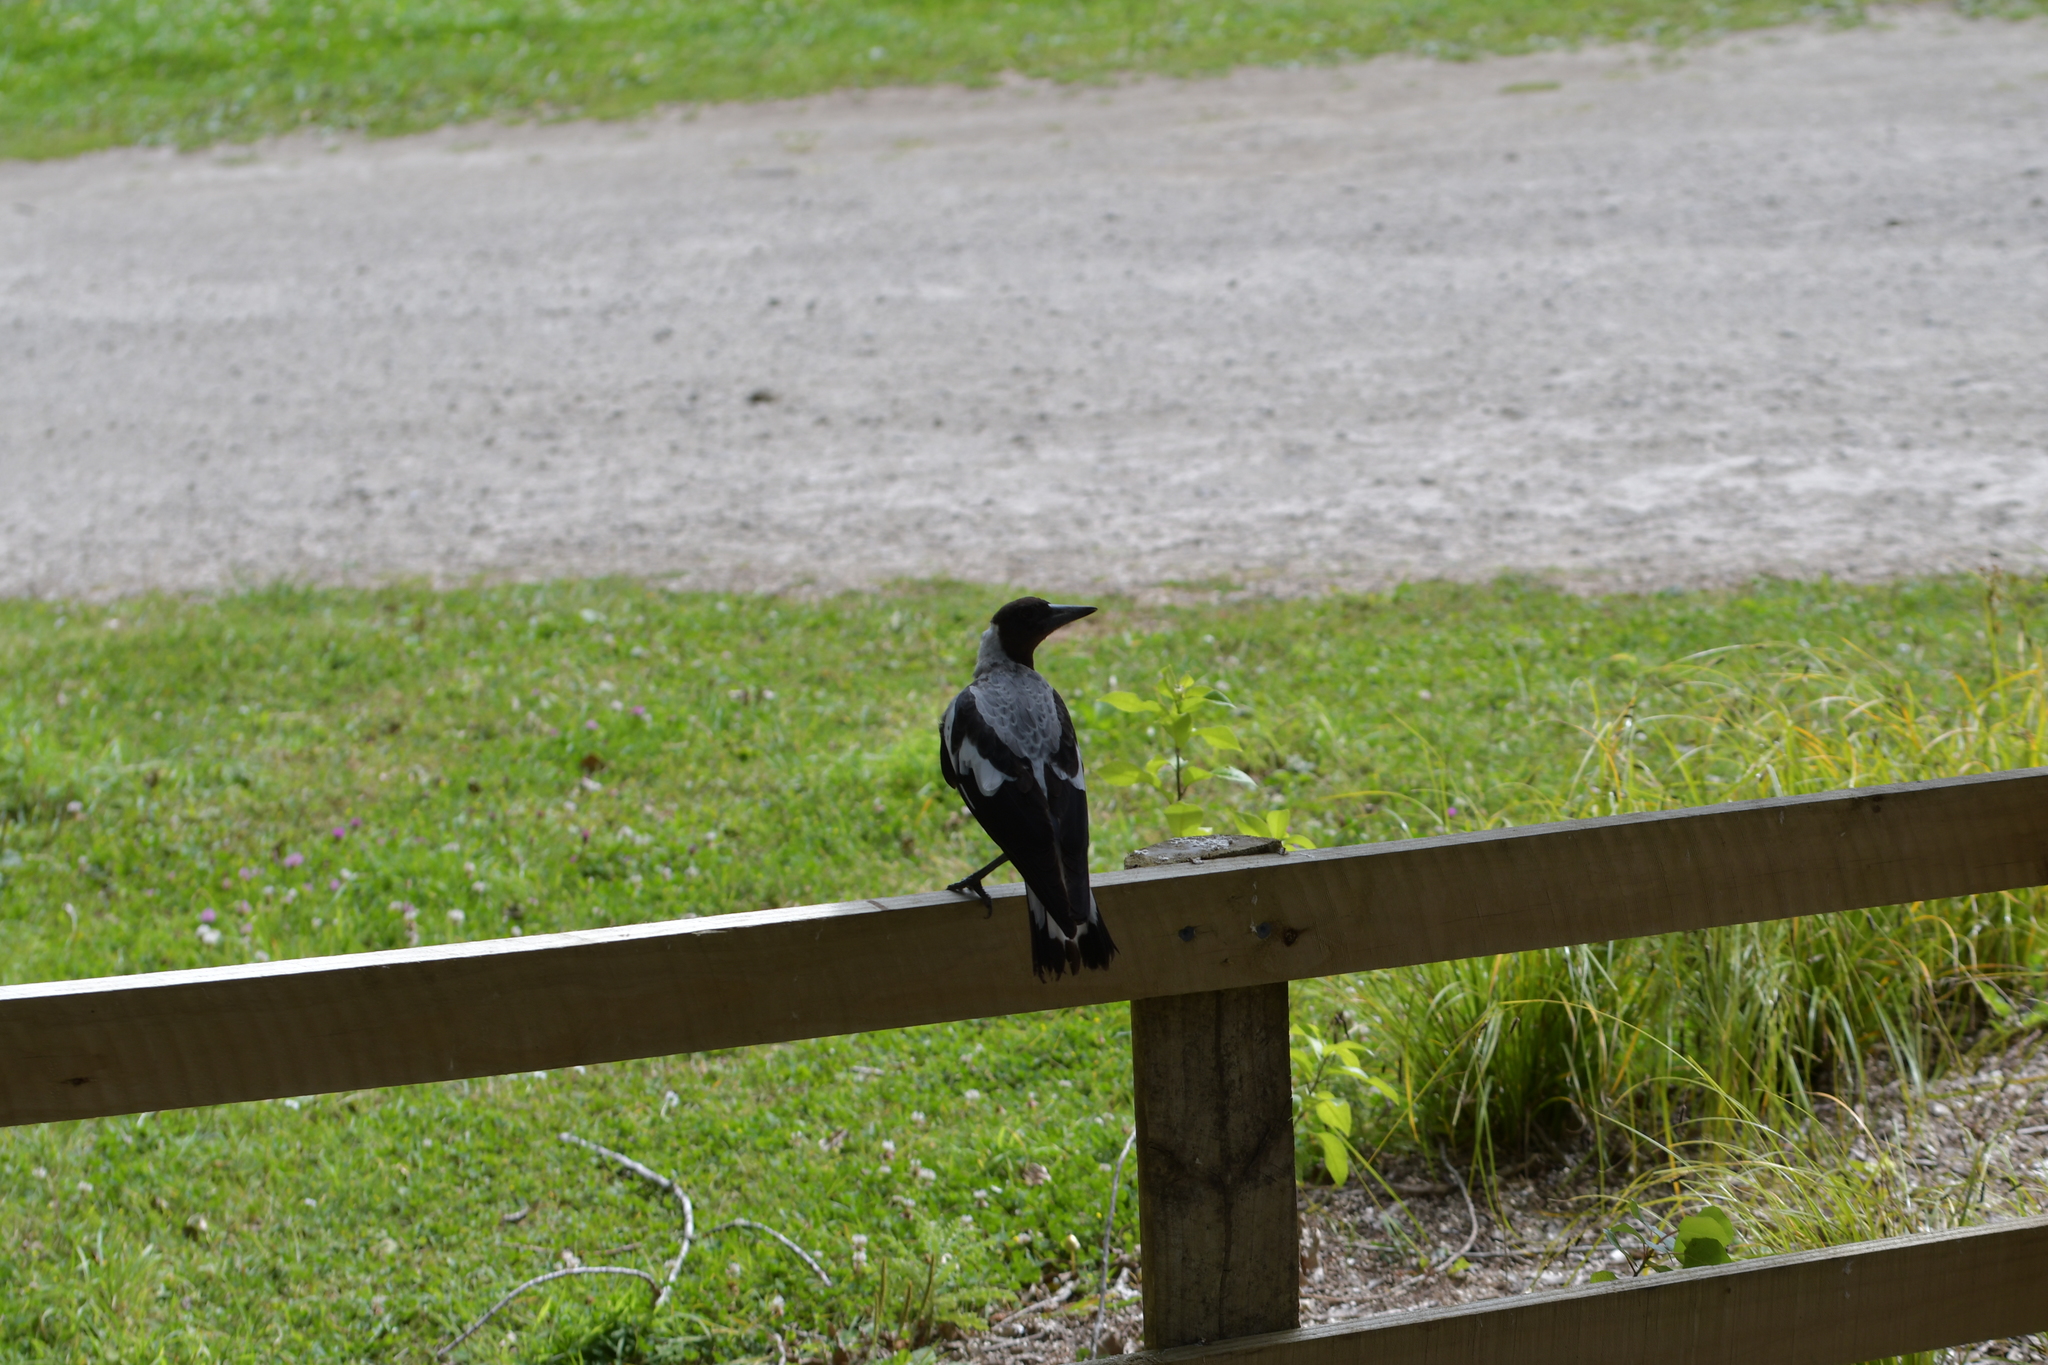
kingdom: Animalia
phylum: Chordata
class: Aves
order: Passeriformes
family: Cracticidae
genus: Gymnorhina
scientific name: Gymnorhina tibicen
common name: Australian magpie
